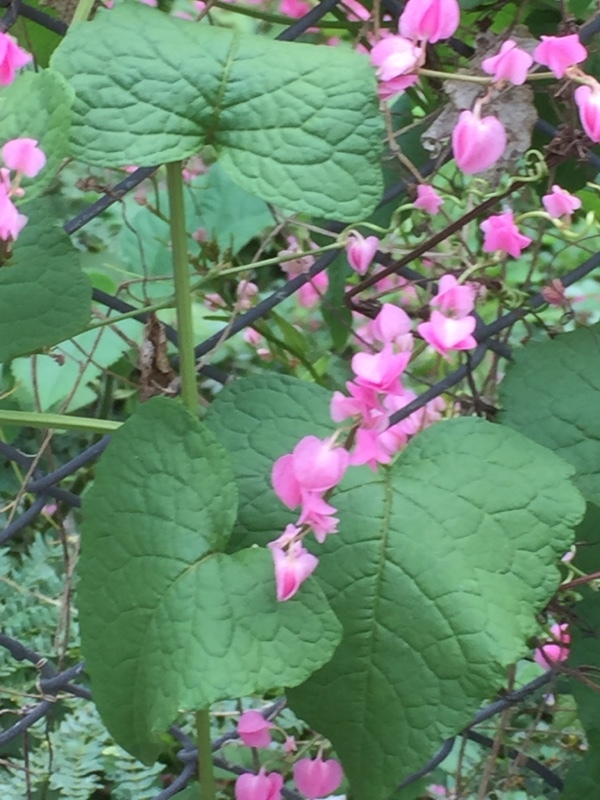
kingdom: Plantae
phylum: Tracheophyta
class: Magnoliopsida
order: Caryophyllales
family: Polygonaceae
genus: Antigonon
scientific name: Antigonon leptopus
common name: Coral vine
